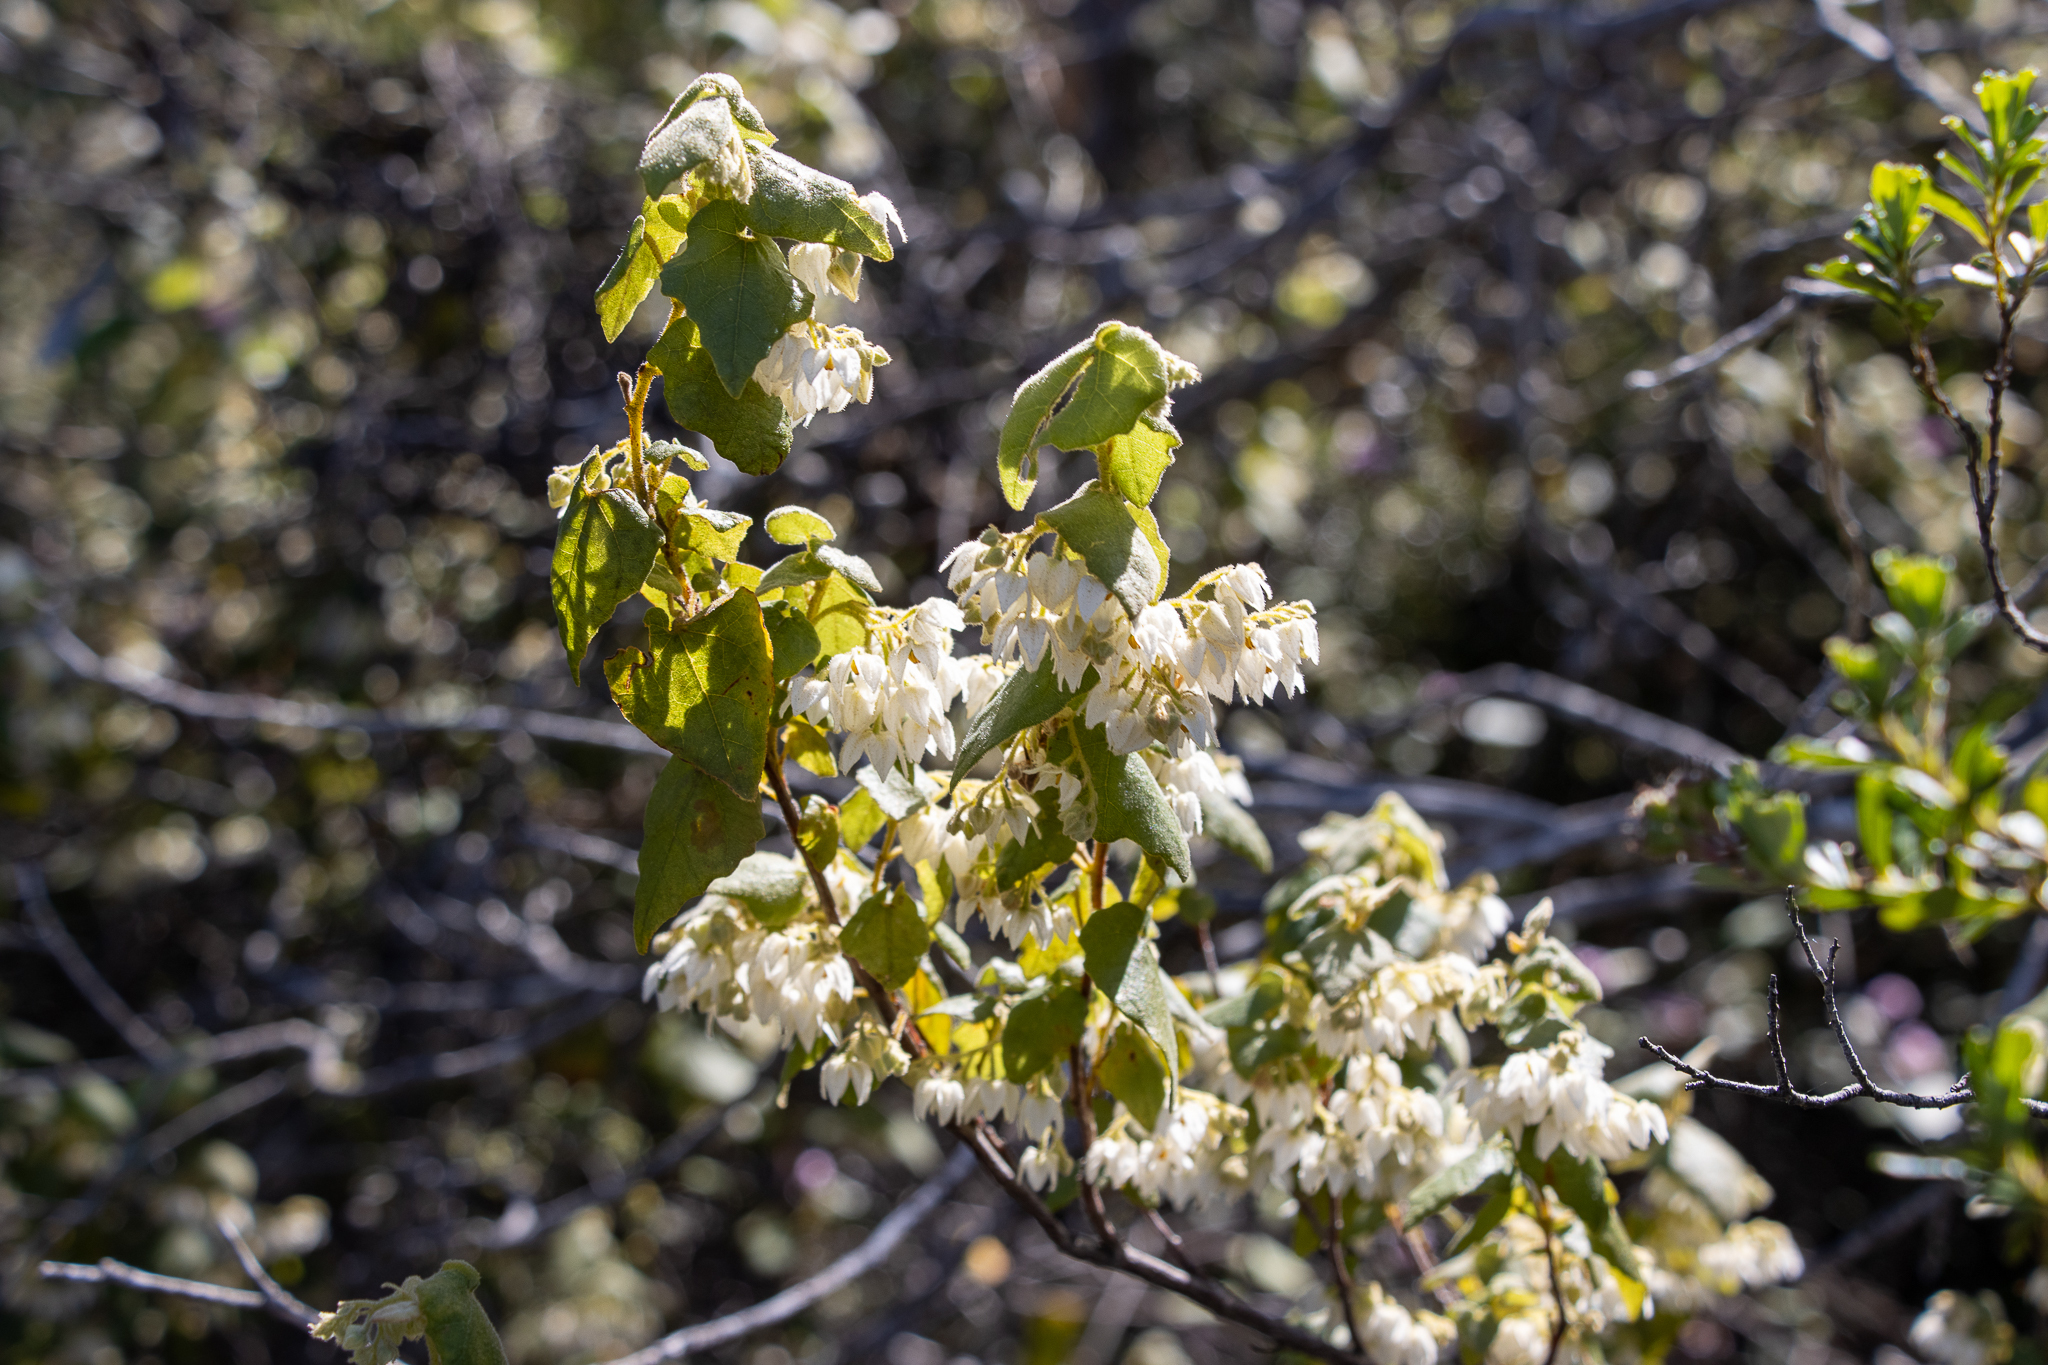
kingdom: Plantae
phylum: Tracheophyta
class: Magnoliopsida
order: Malvales
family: Malvaceae
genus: Lasiopetalum
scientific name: Lasiopetalum schulzenii
